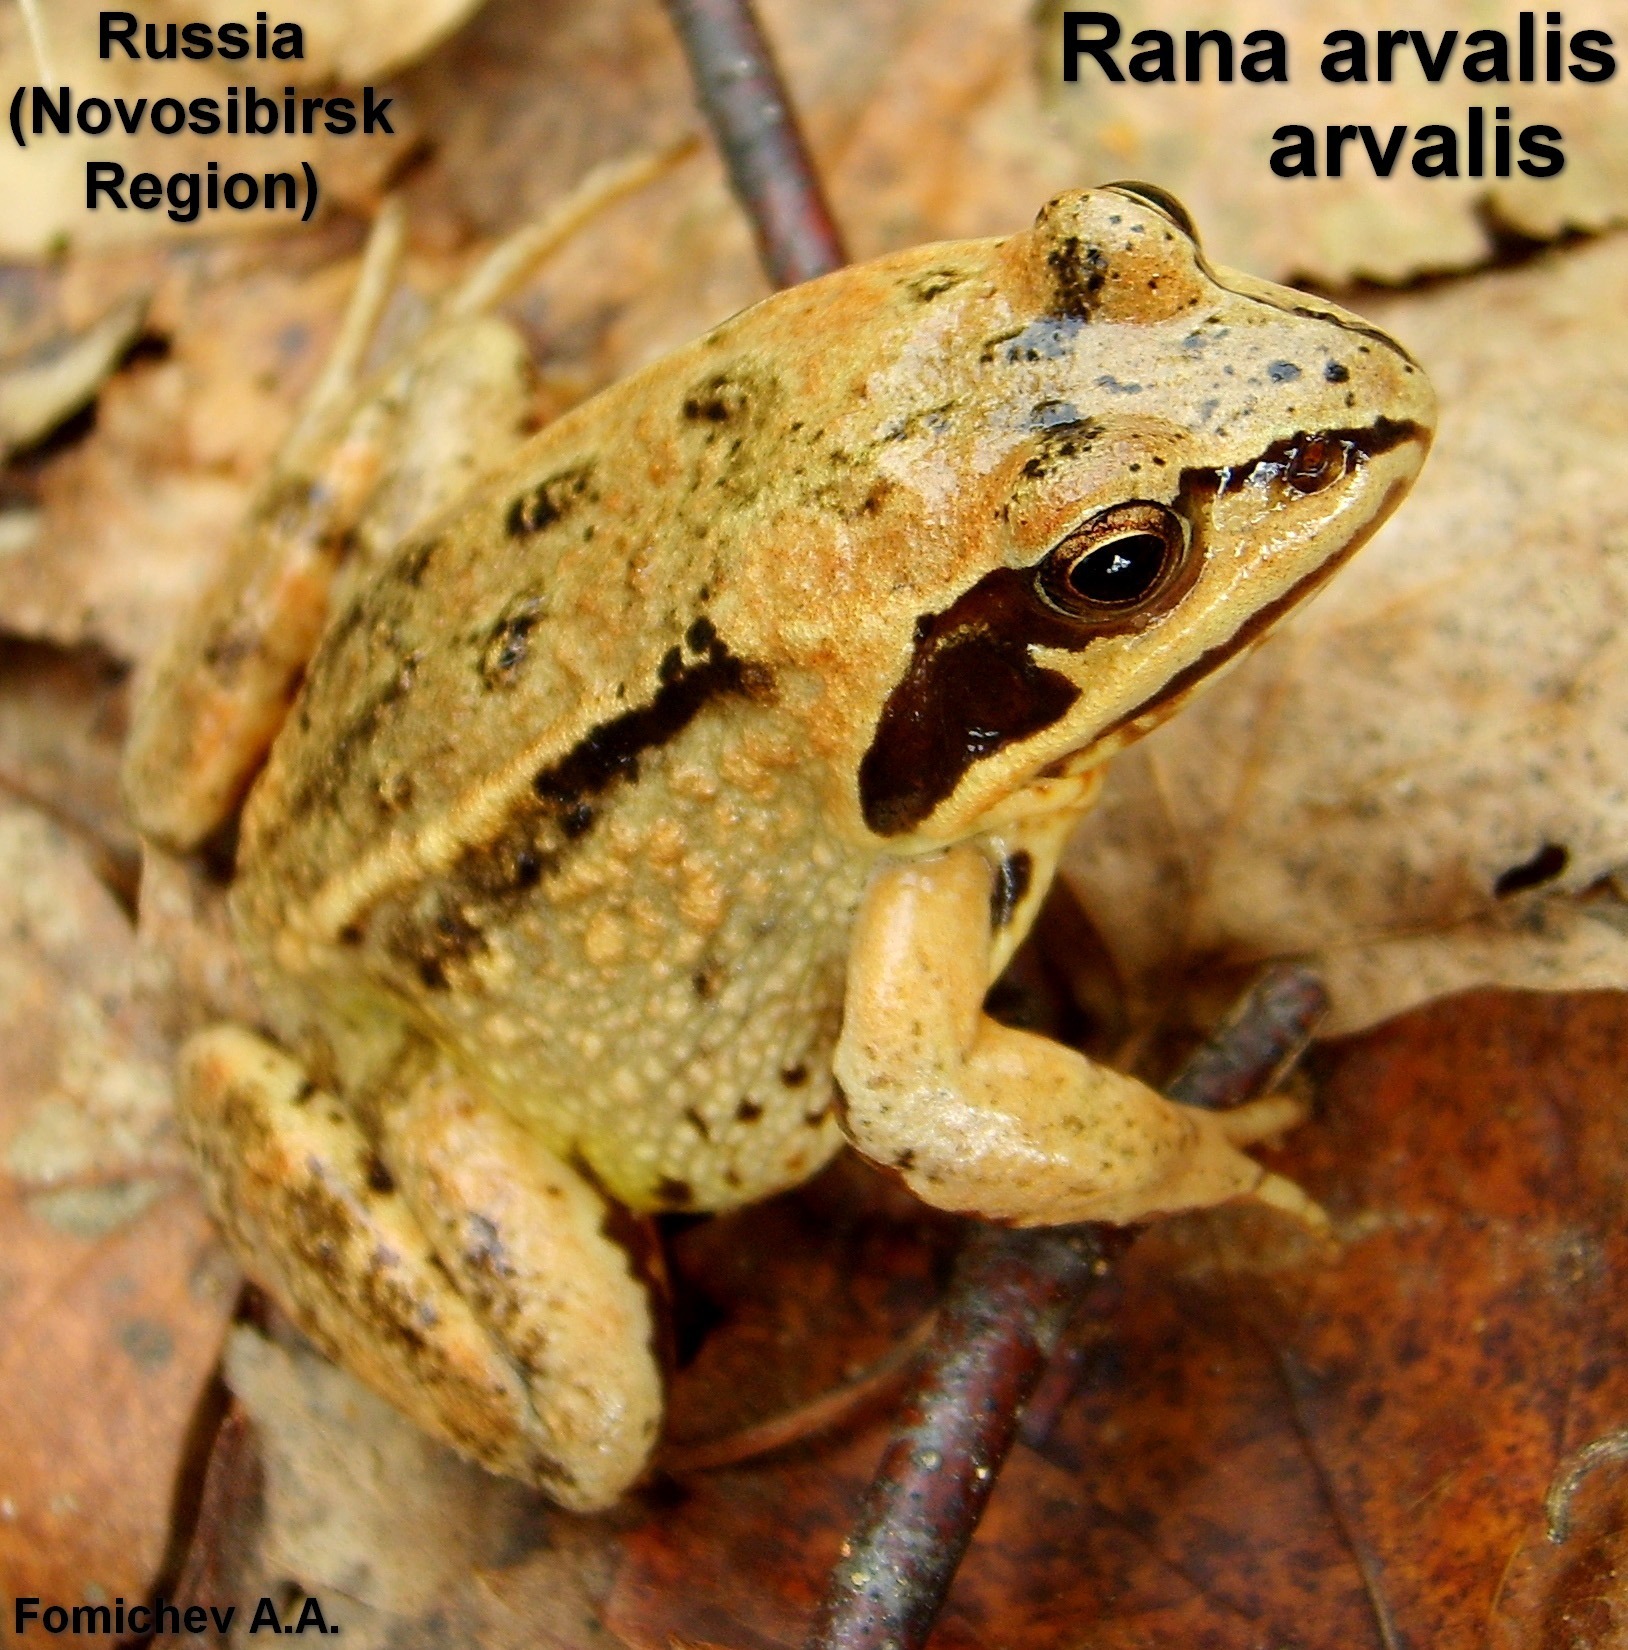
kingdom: Animalia
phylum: Chordata
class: Amphibia
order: Anura
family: Ranidae
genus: Rana
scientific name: Rana arvalis
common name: Moor frog
